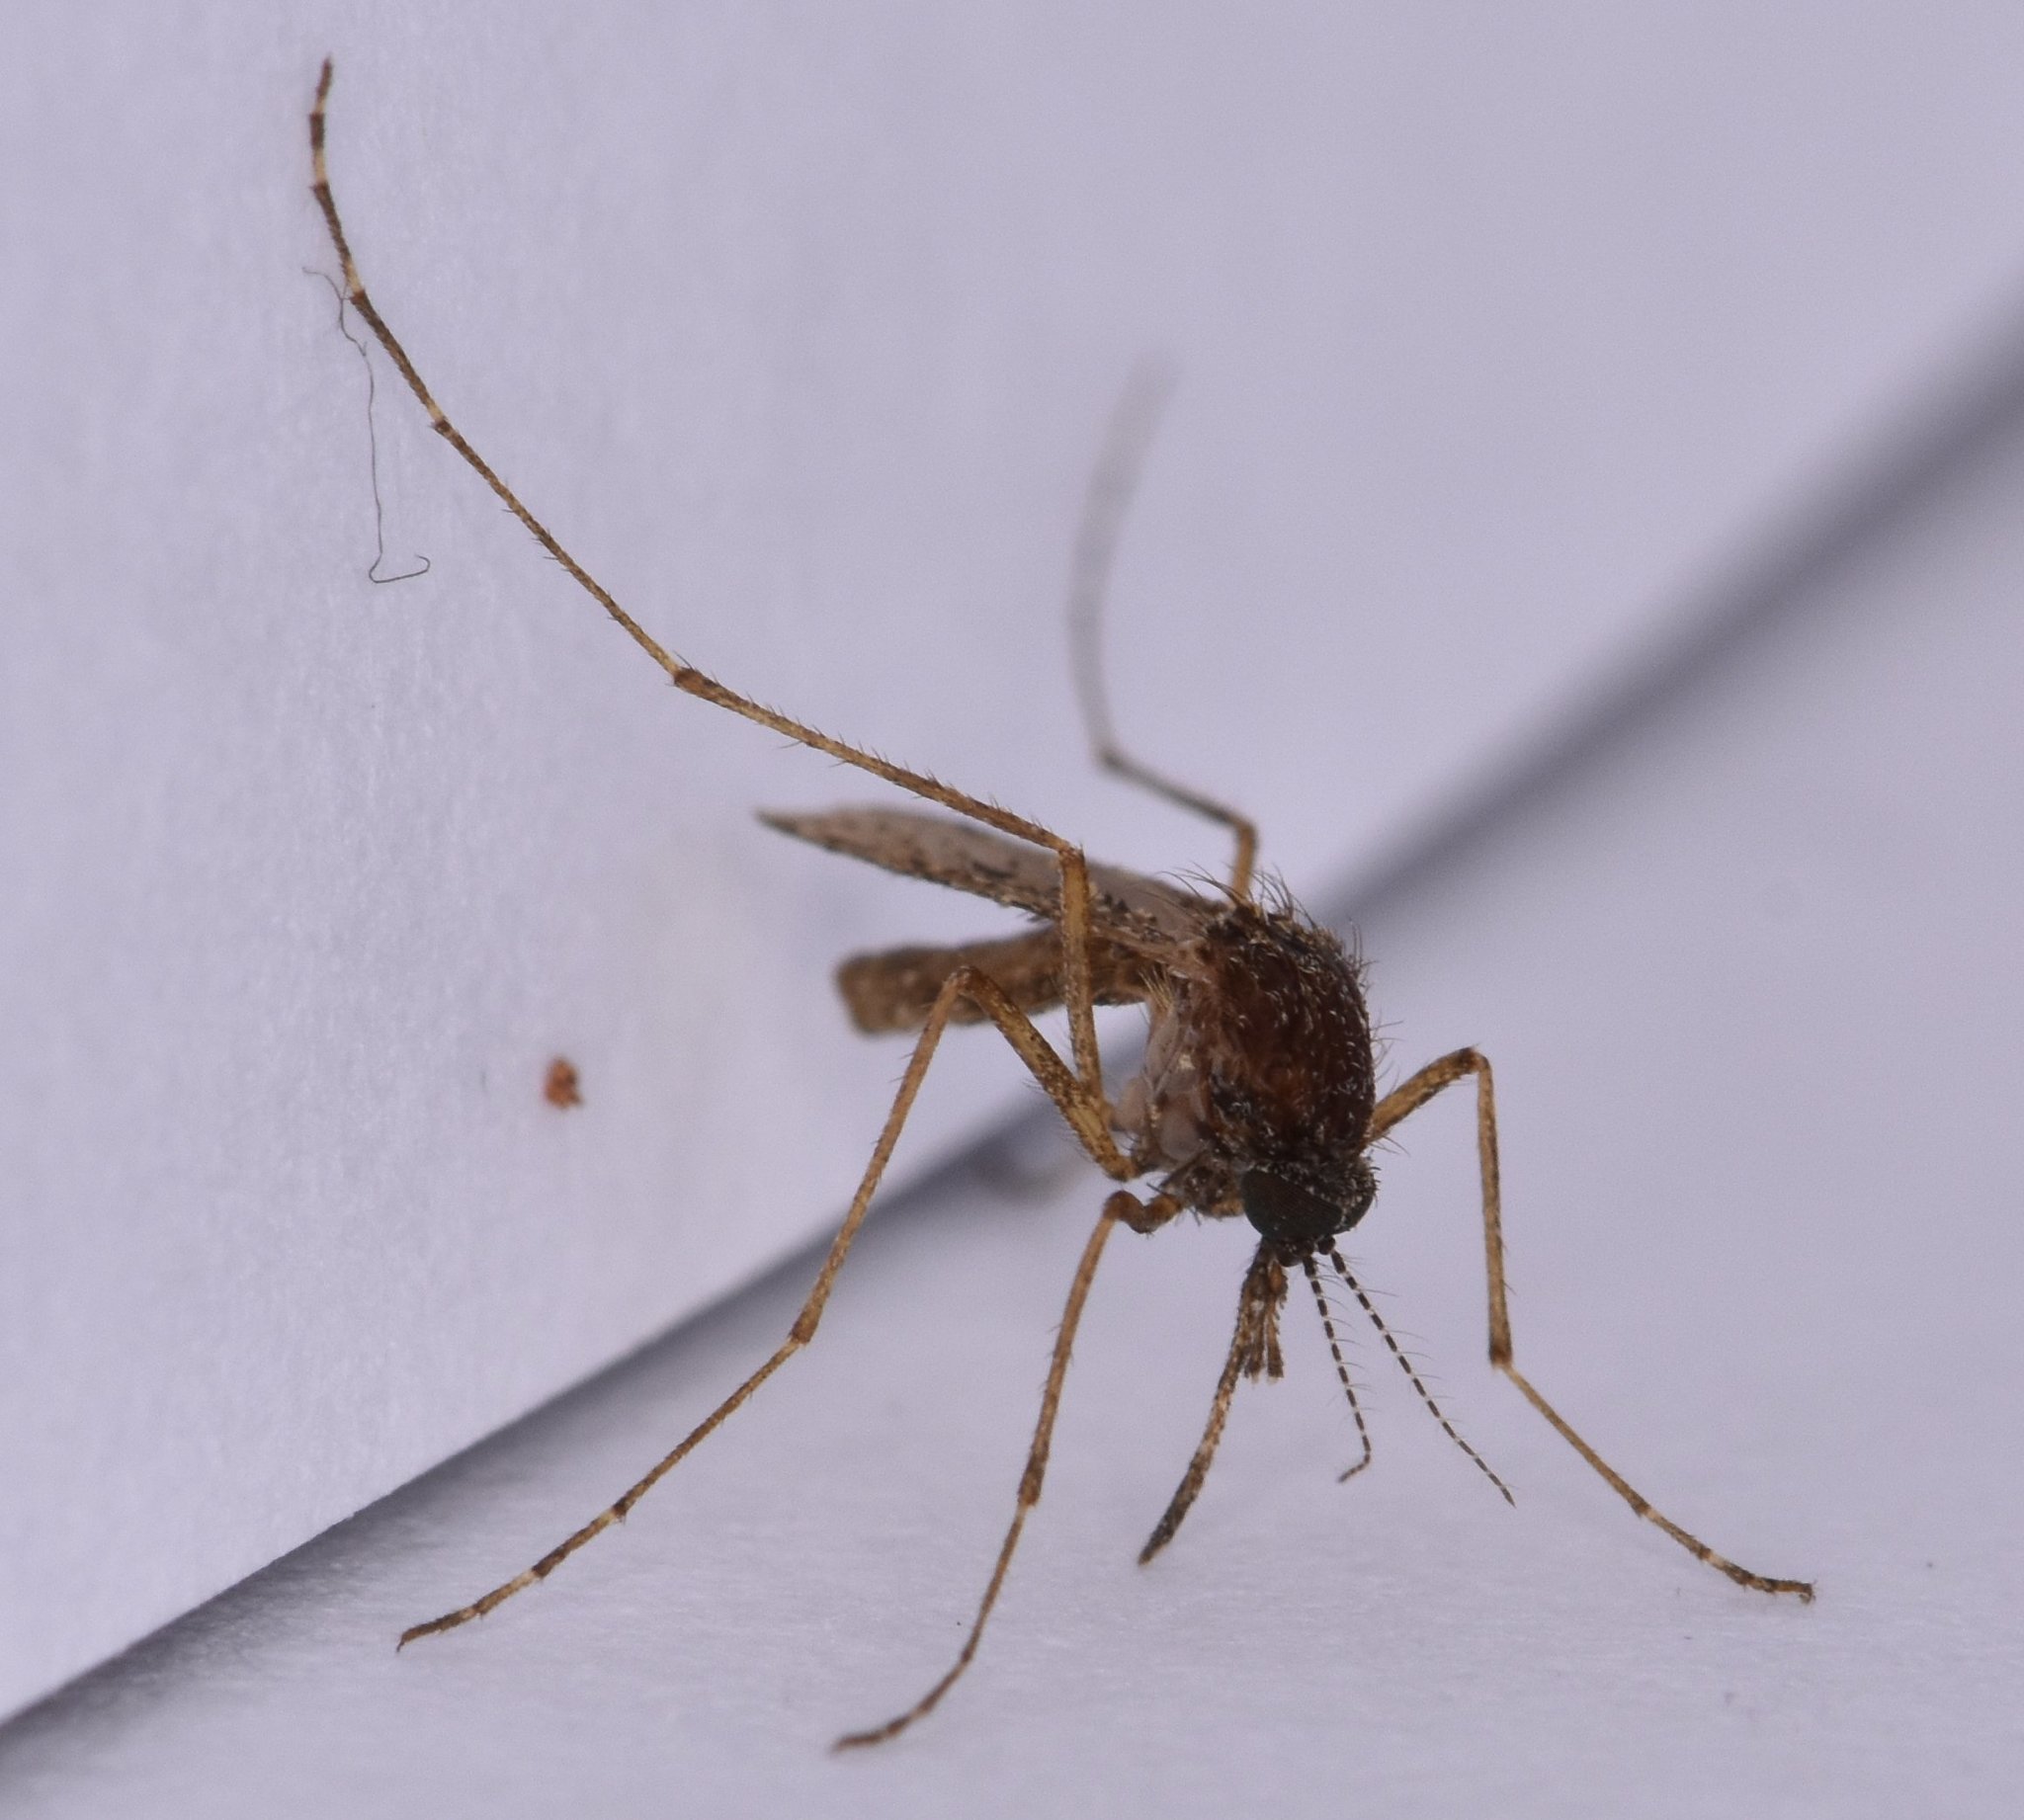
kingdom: Animalia
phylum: Arthropoda
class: Insecta
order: Diptera
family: Culicidae
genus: Mansonia
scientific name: Mansonia titillans
